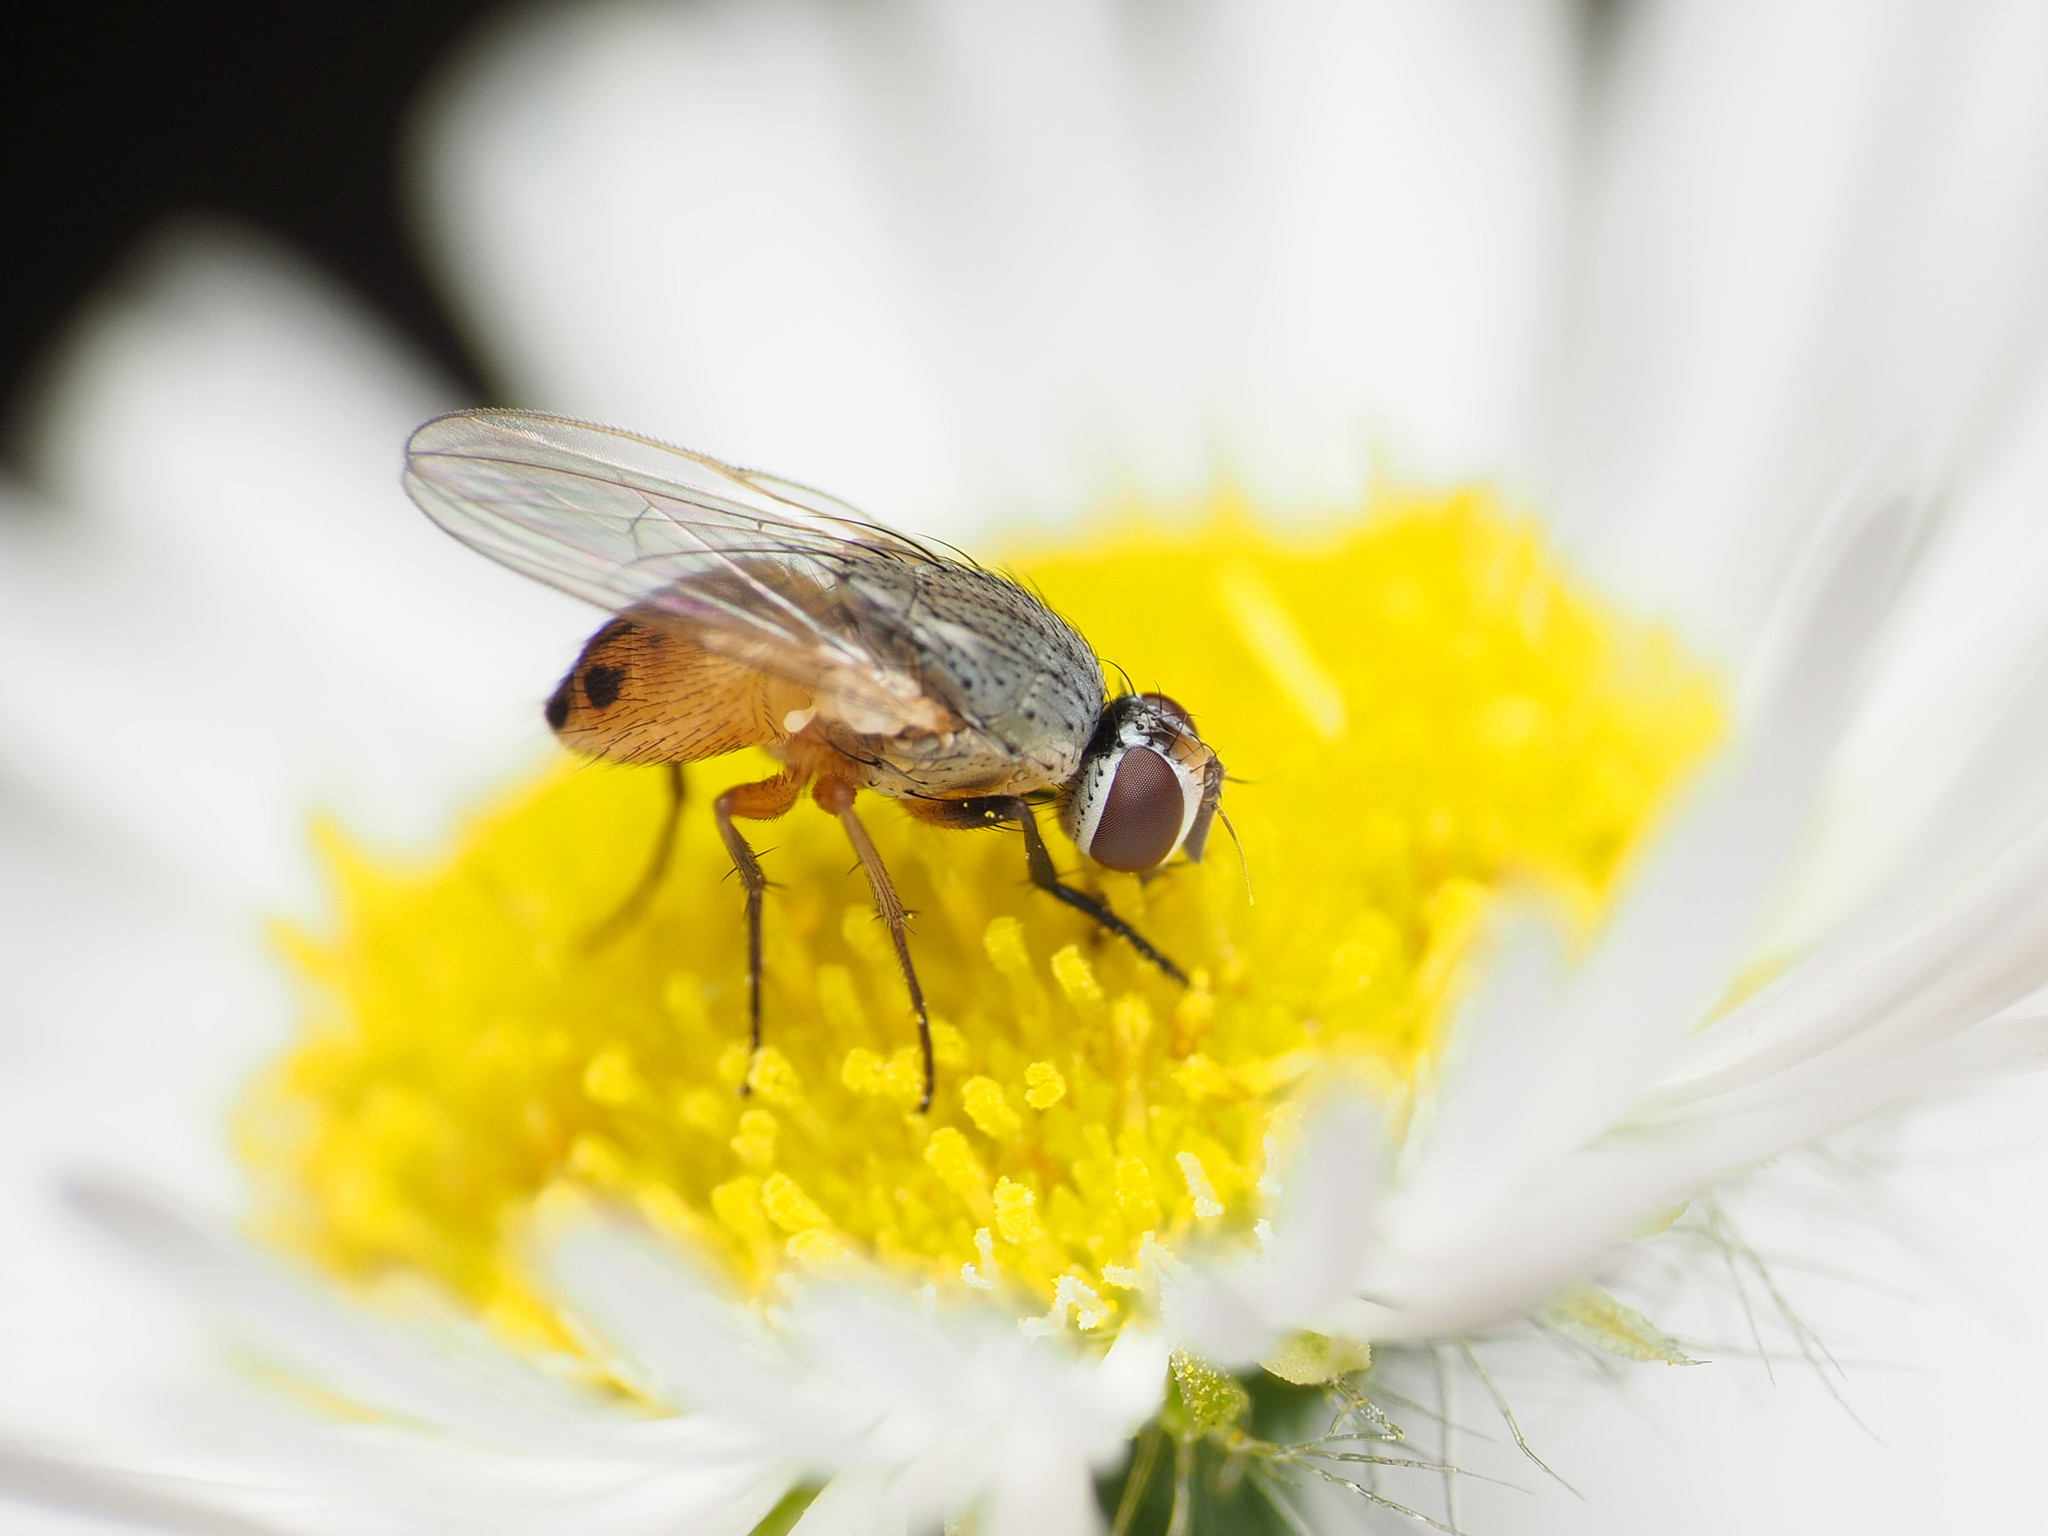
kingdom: Animalia
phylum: Arthropoda
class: Insecta
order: Diptera
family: Muscidae
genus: Atherigona
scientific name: Atherigona reversura
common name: Bermudagrass stem maggot
